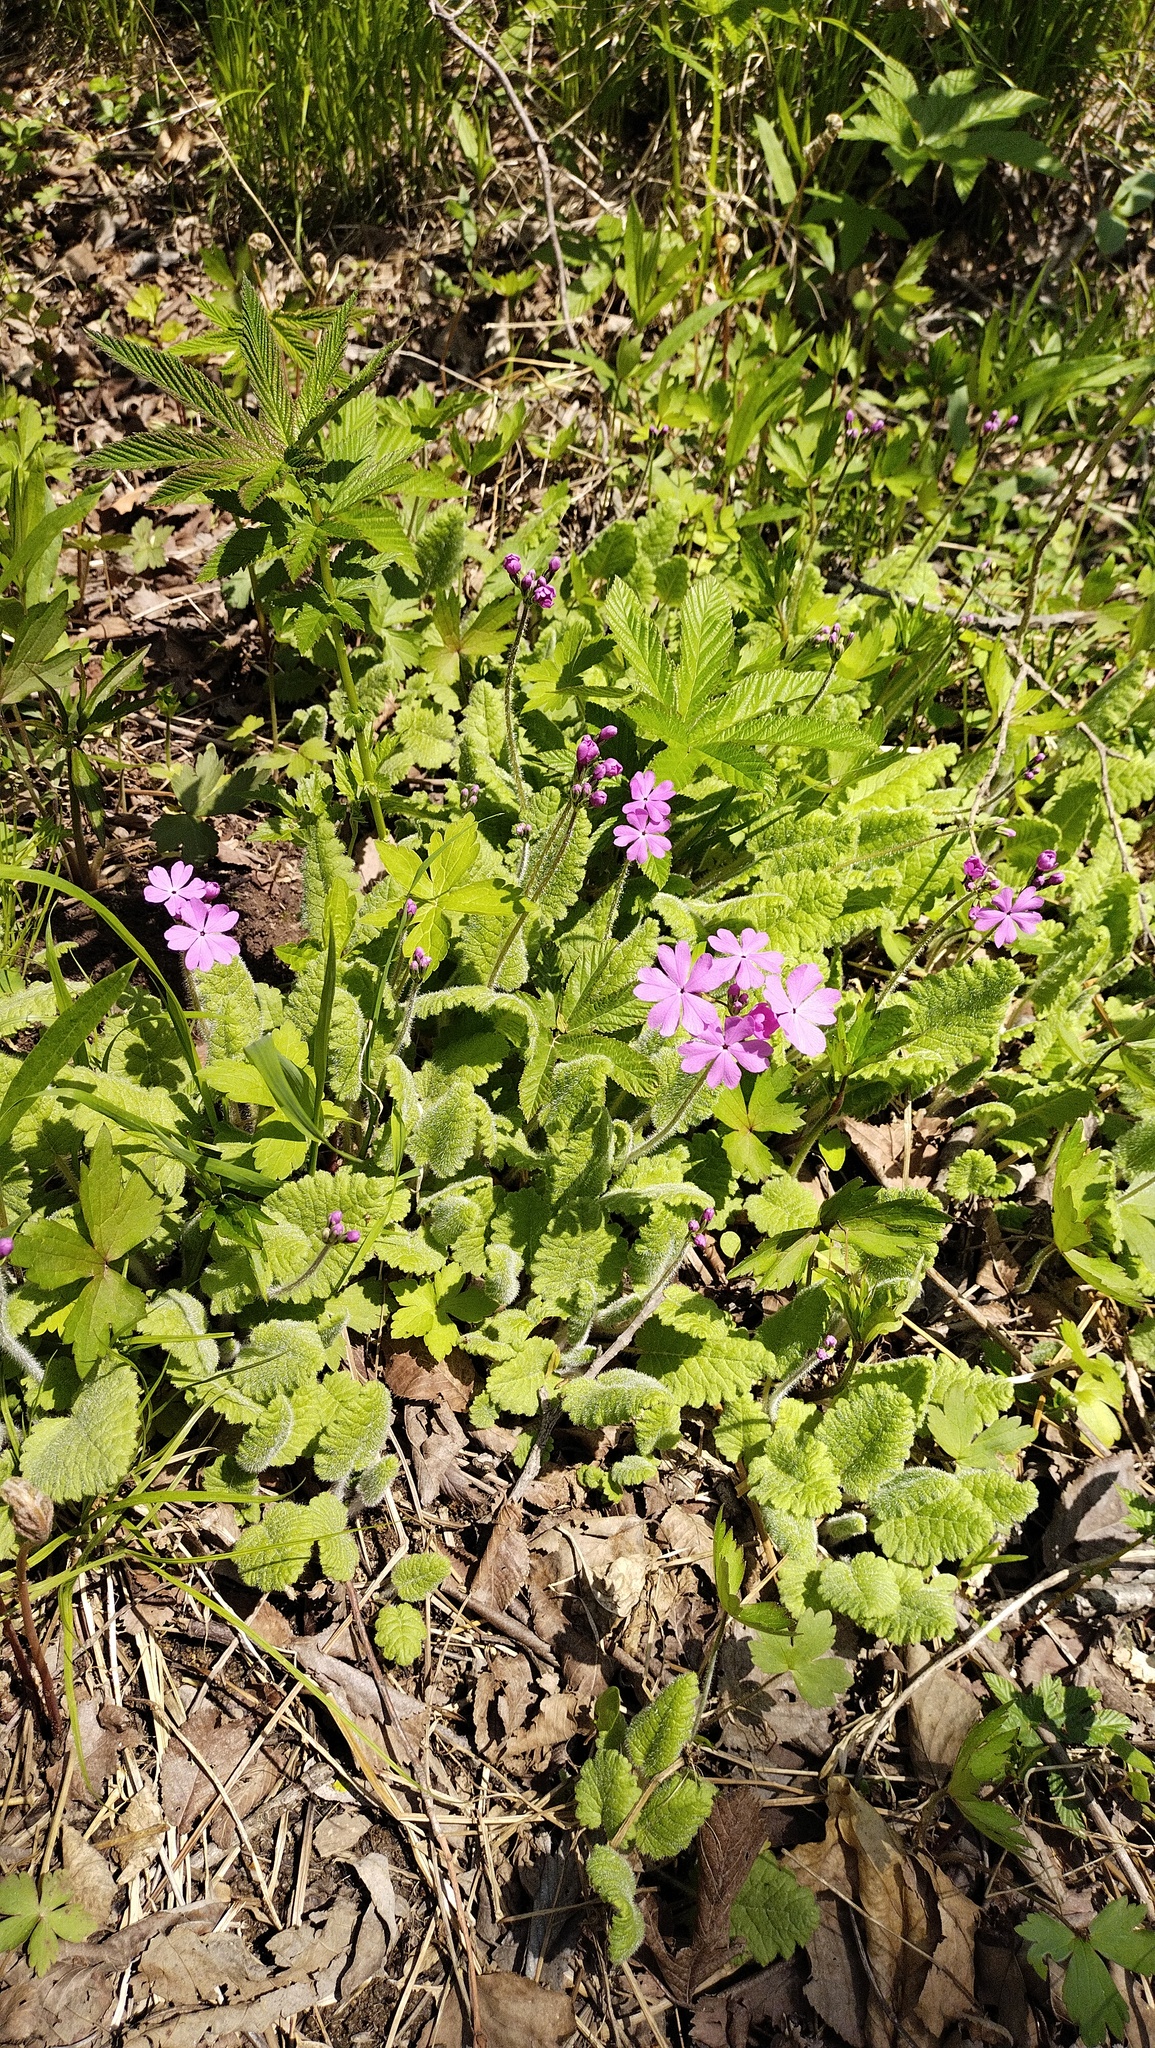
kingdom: Plantae
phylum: Tracheophyta
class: Magnoliopsida
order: Ericales
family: Primulaceae
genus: Primula
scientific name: Primula sieboldii
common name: Japanese primrose
